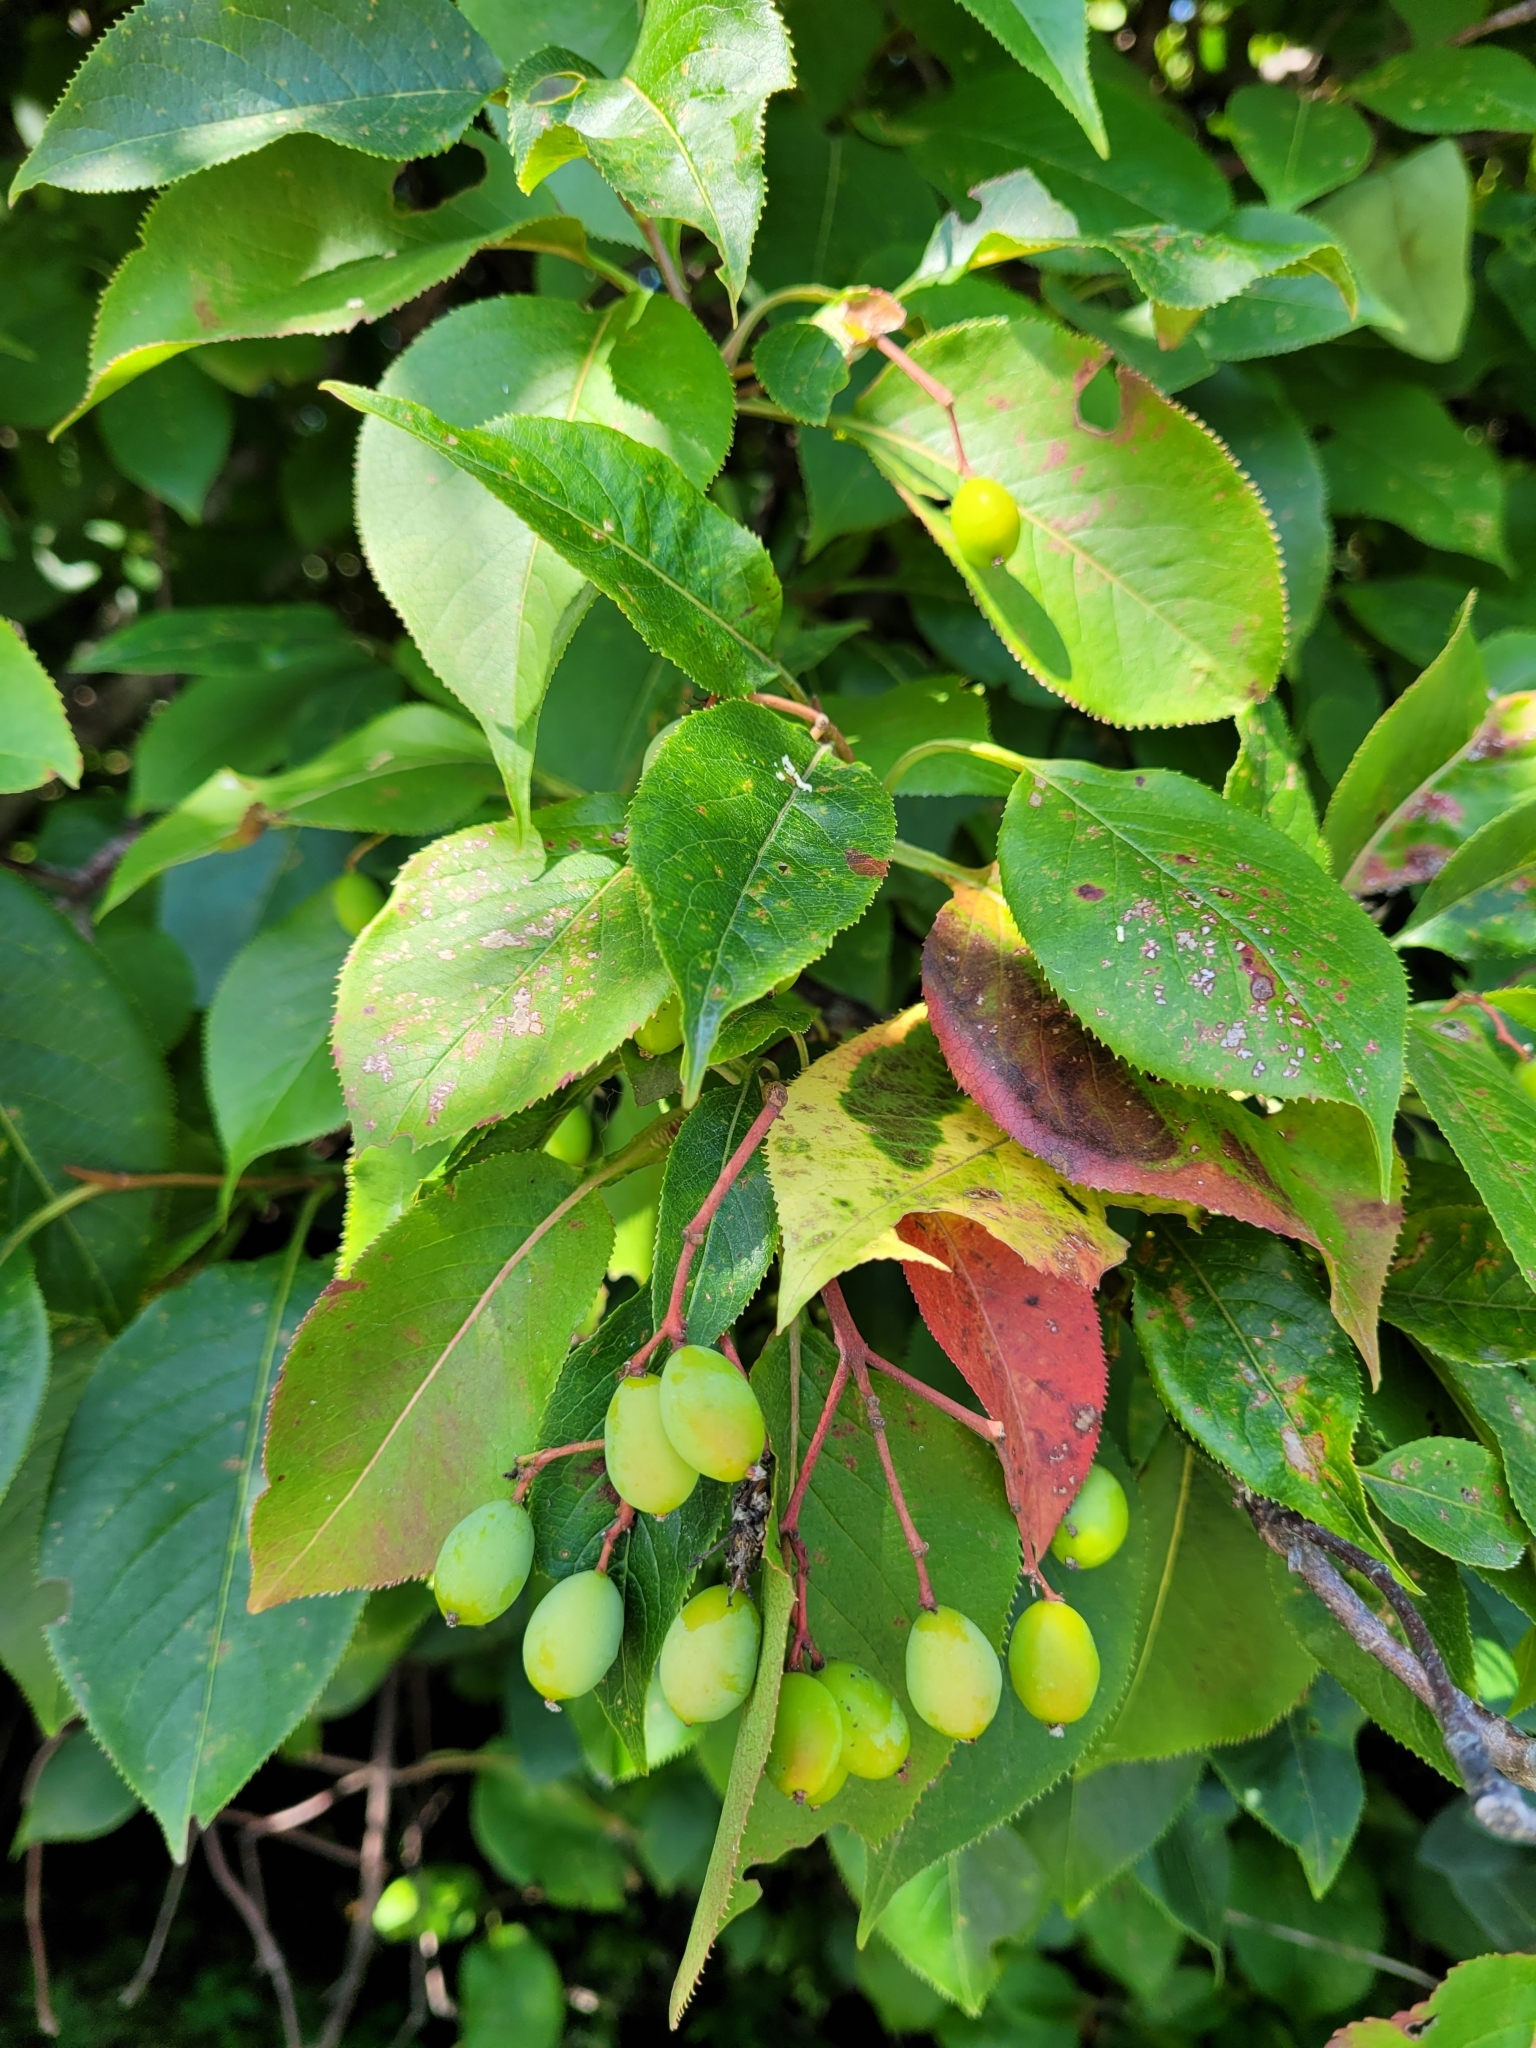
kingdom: Plantae
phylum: Tracheophyta
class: Magnoliopsida
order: Dipsacales
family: Viburnaceae
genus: Viburnum
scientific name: Viburnum lentago
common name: Black haw
